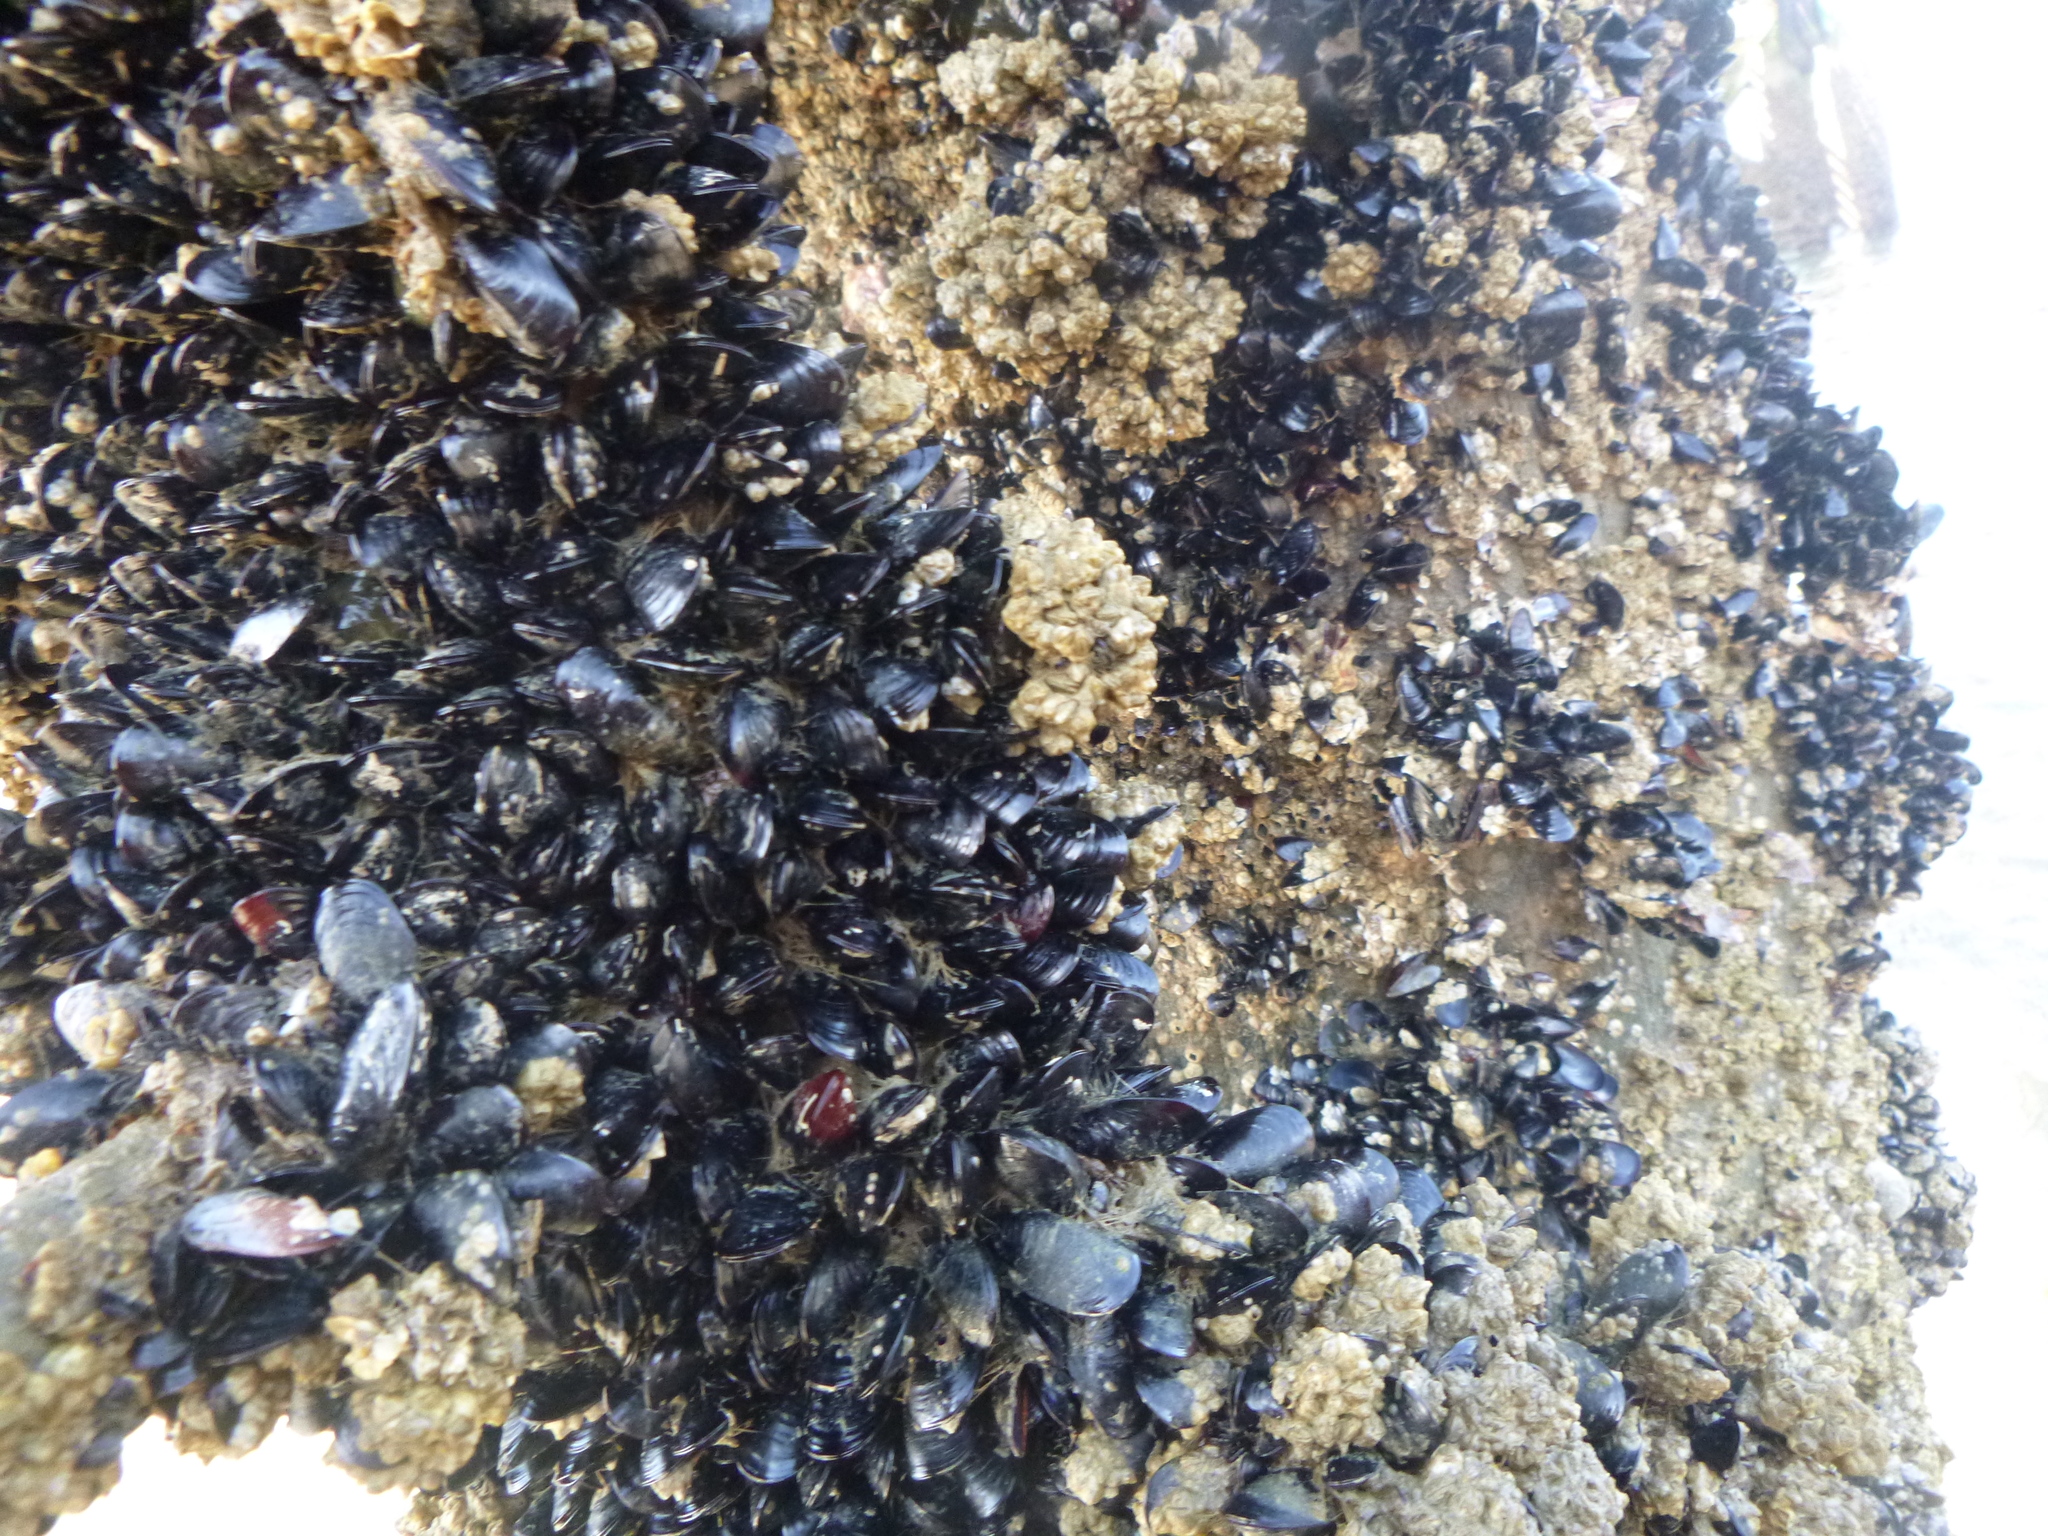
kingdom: Animalia
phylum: Mollusca
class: Bivalvia
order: Mytilida
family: Mytilidae
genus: Xenostrobus
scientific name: Xenostrobus neozelanicus
